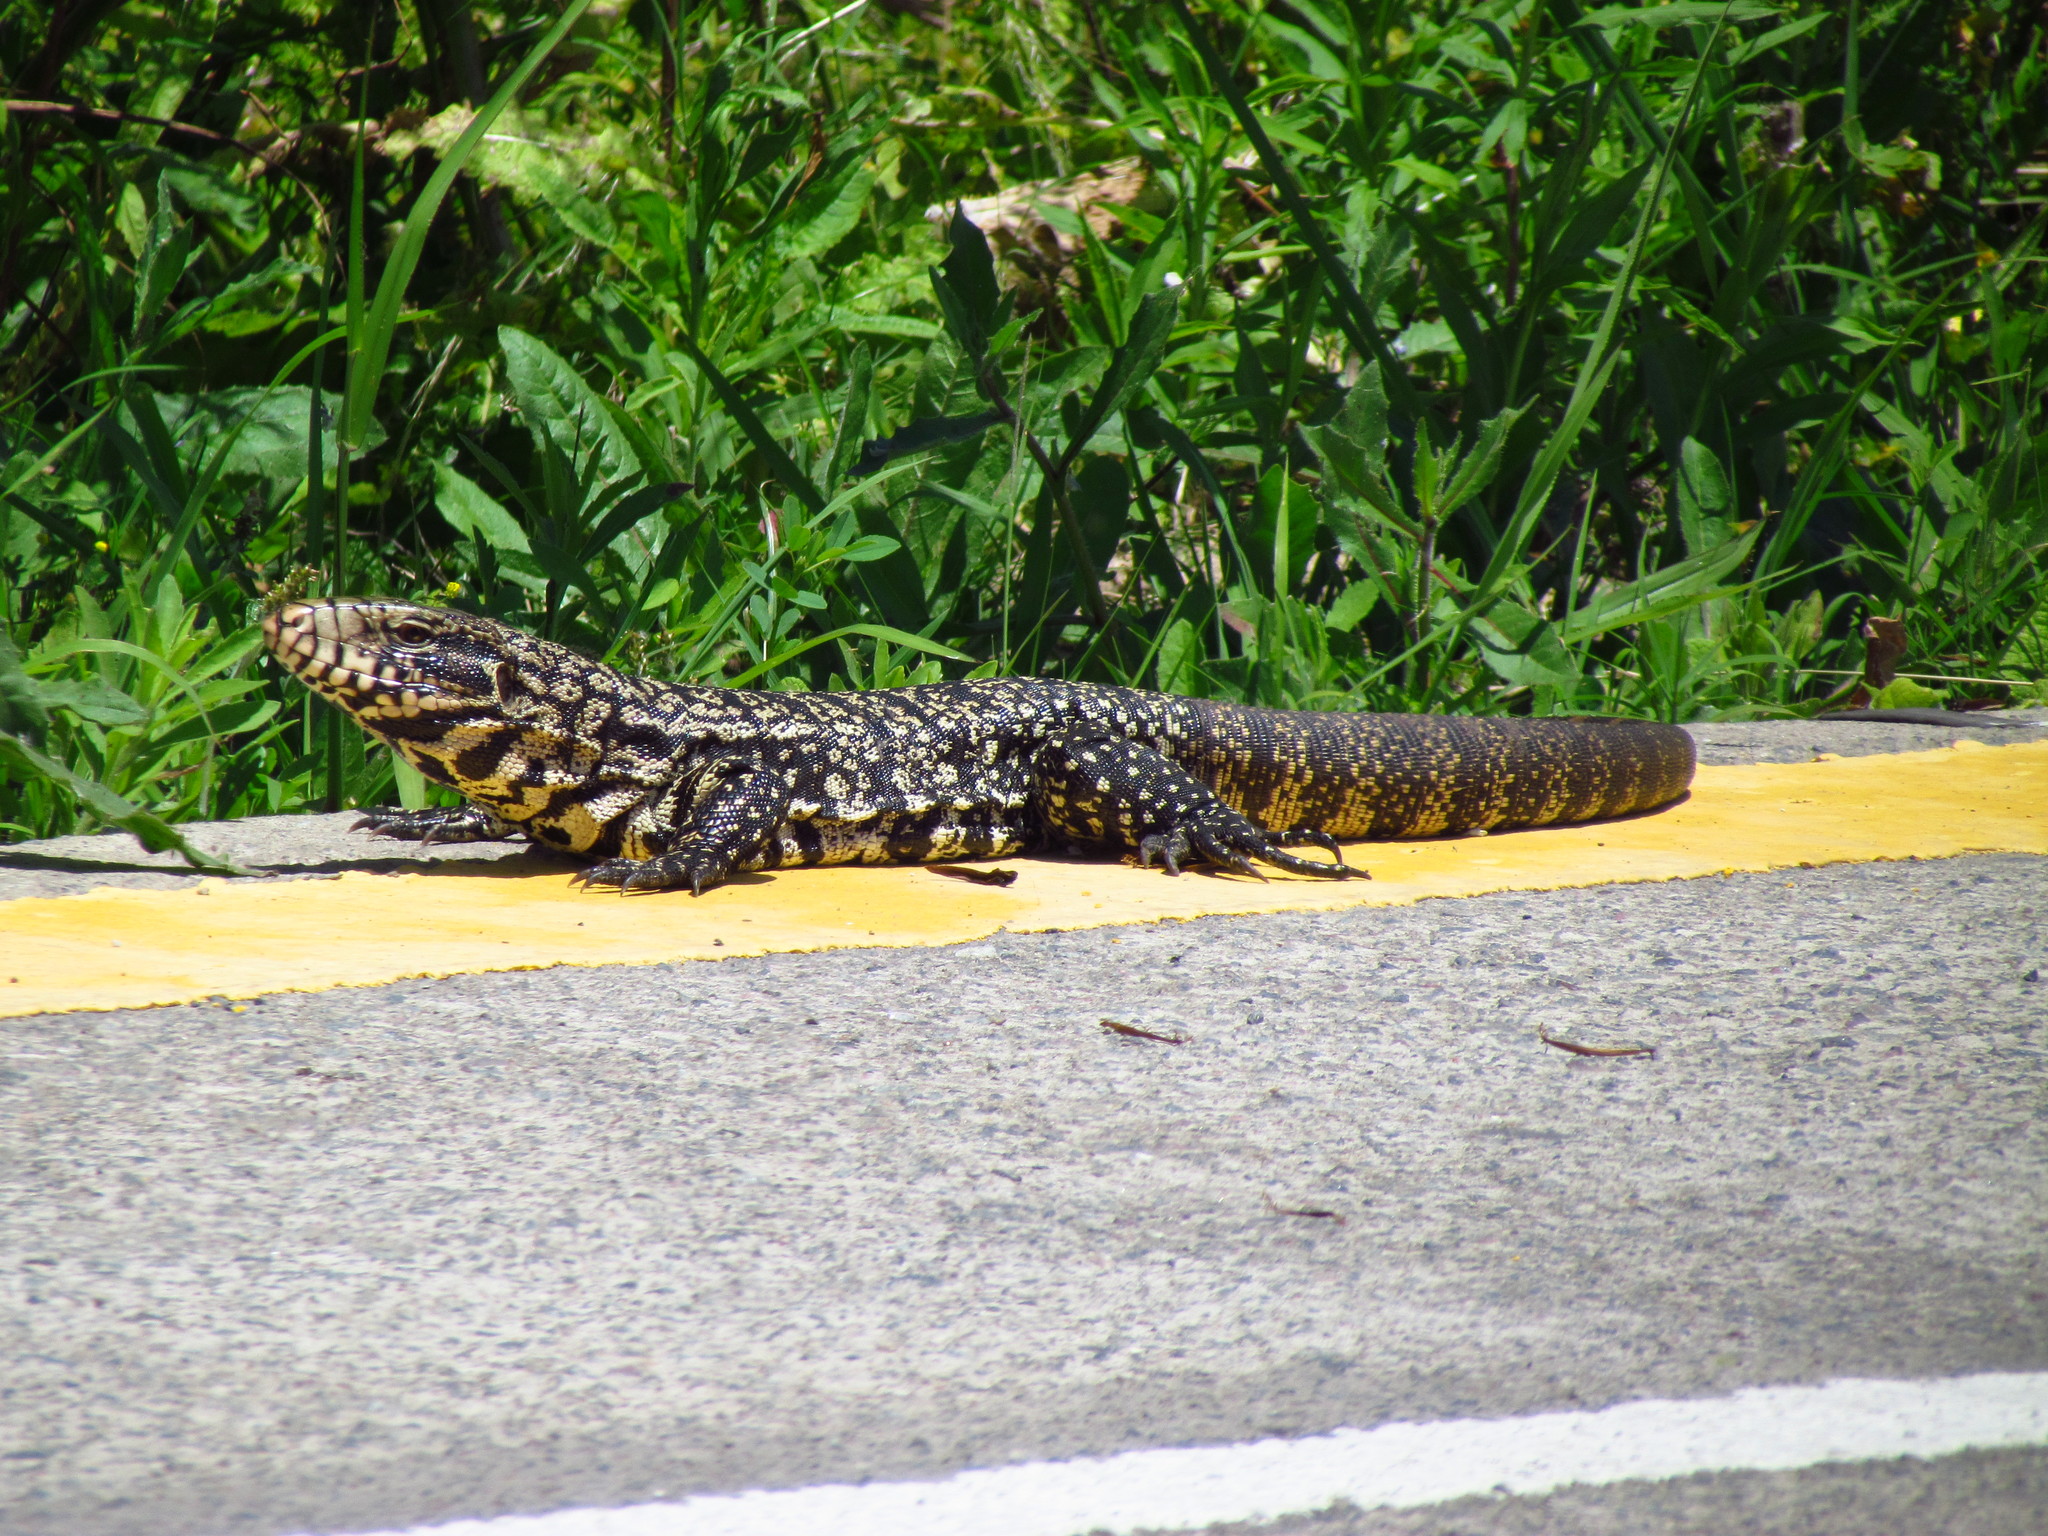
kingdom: Animalia
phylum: Chordata
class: Squamata
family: Teiidae
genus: Salvator
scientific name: Salvator merianae
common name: Argentine black and white tegu
